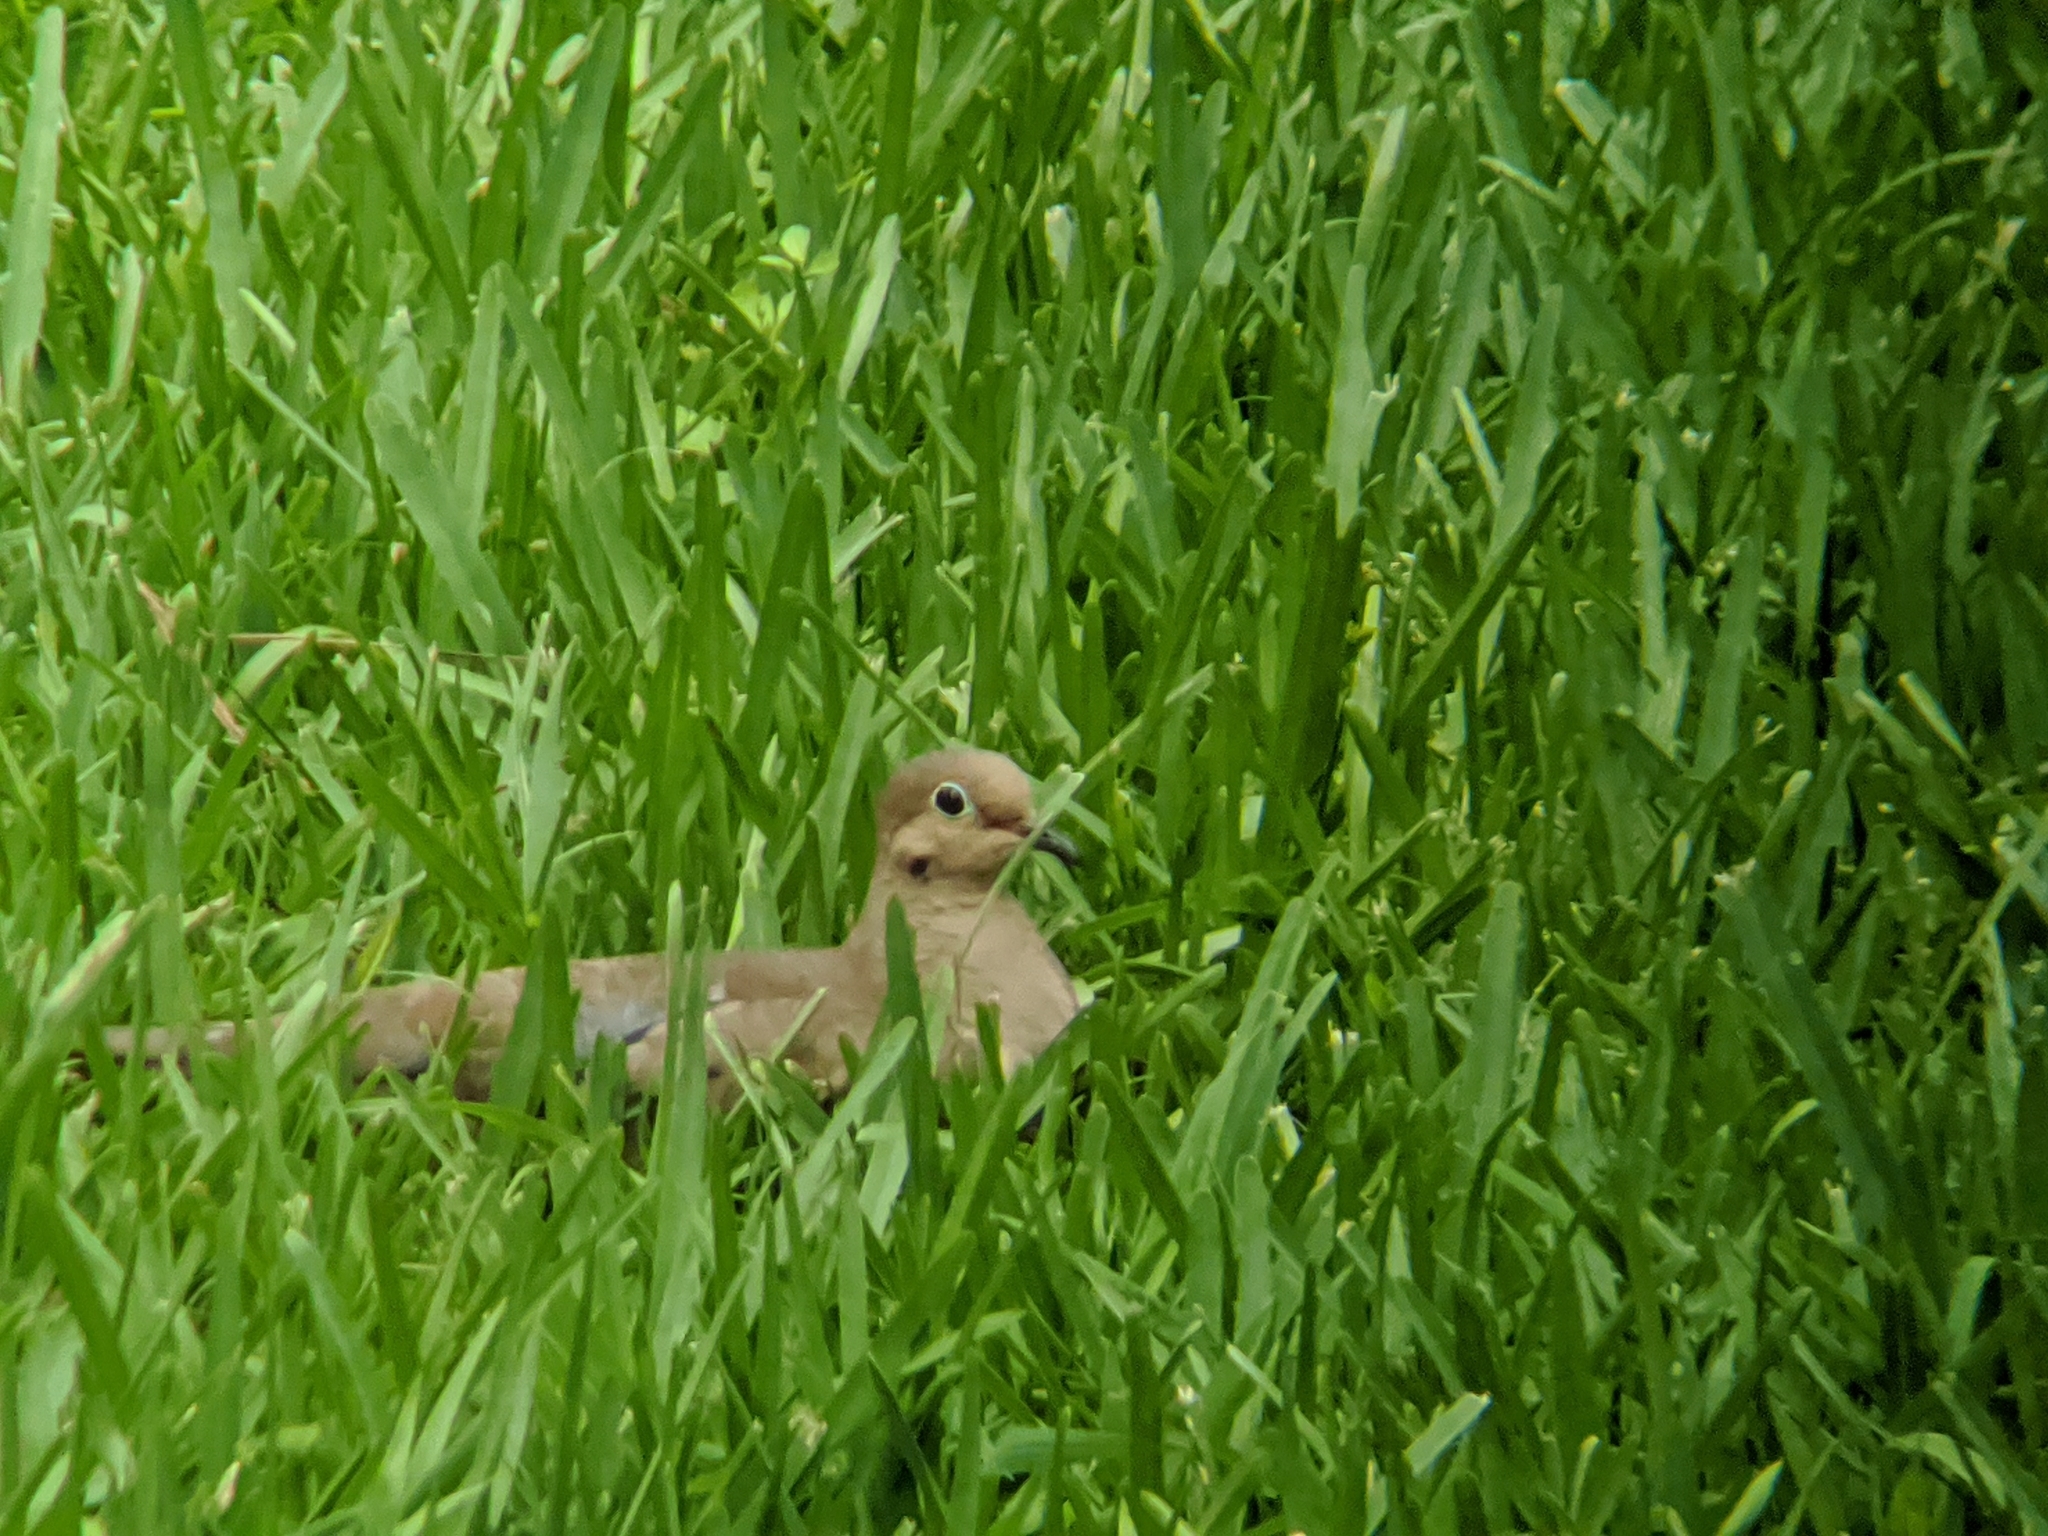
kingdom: Animalia
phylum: Chordata
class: Aves
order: Columbiformes
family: Columbidae
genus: Zenaida
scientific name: Zenaida macroura
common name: Mourning dove
